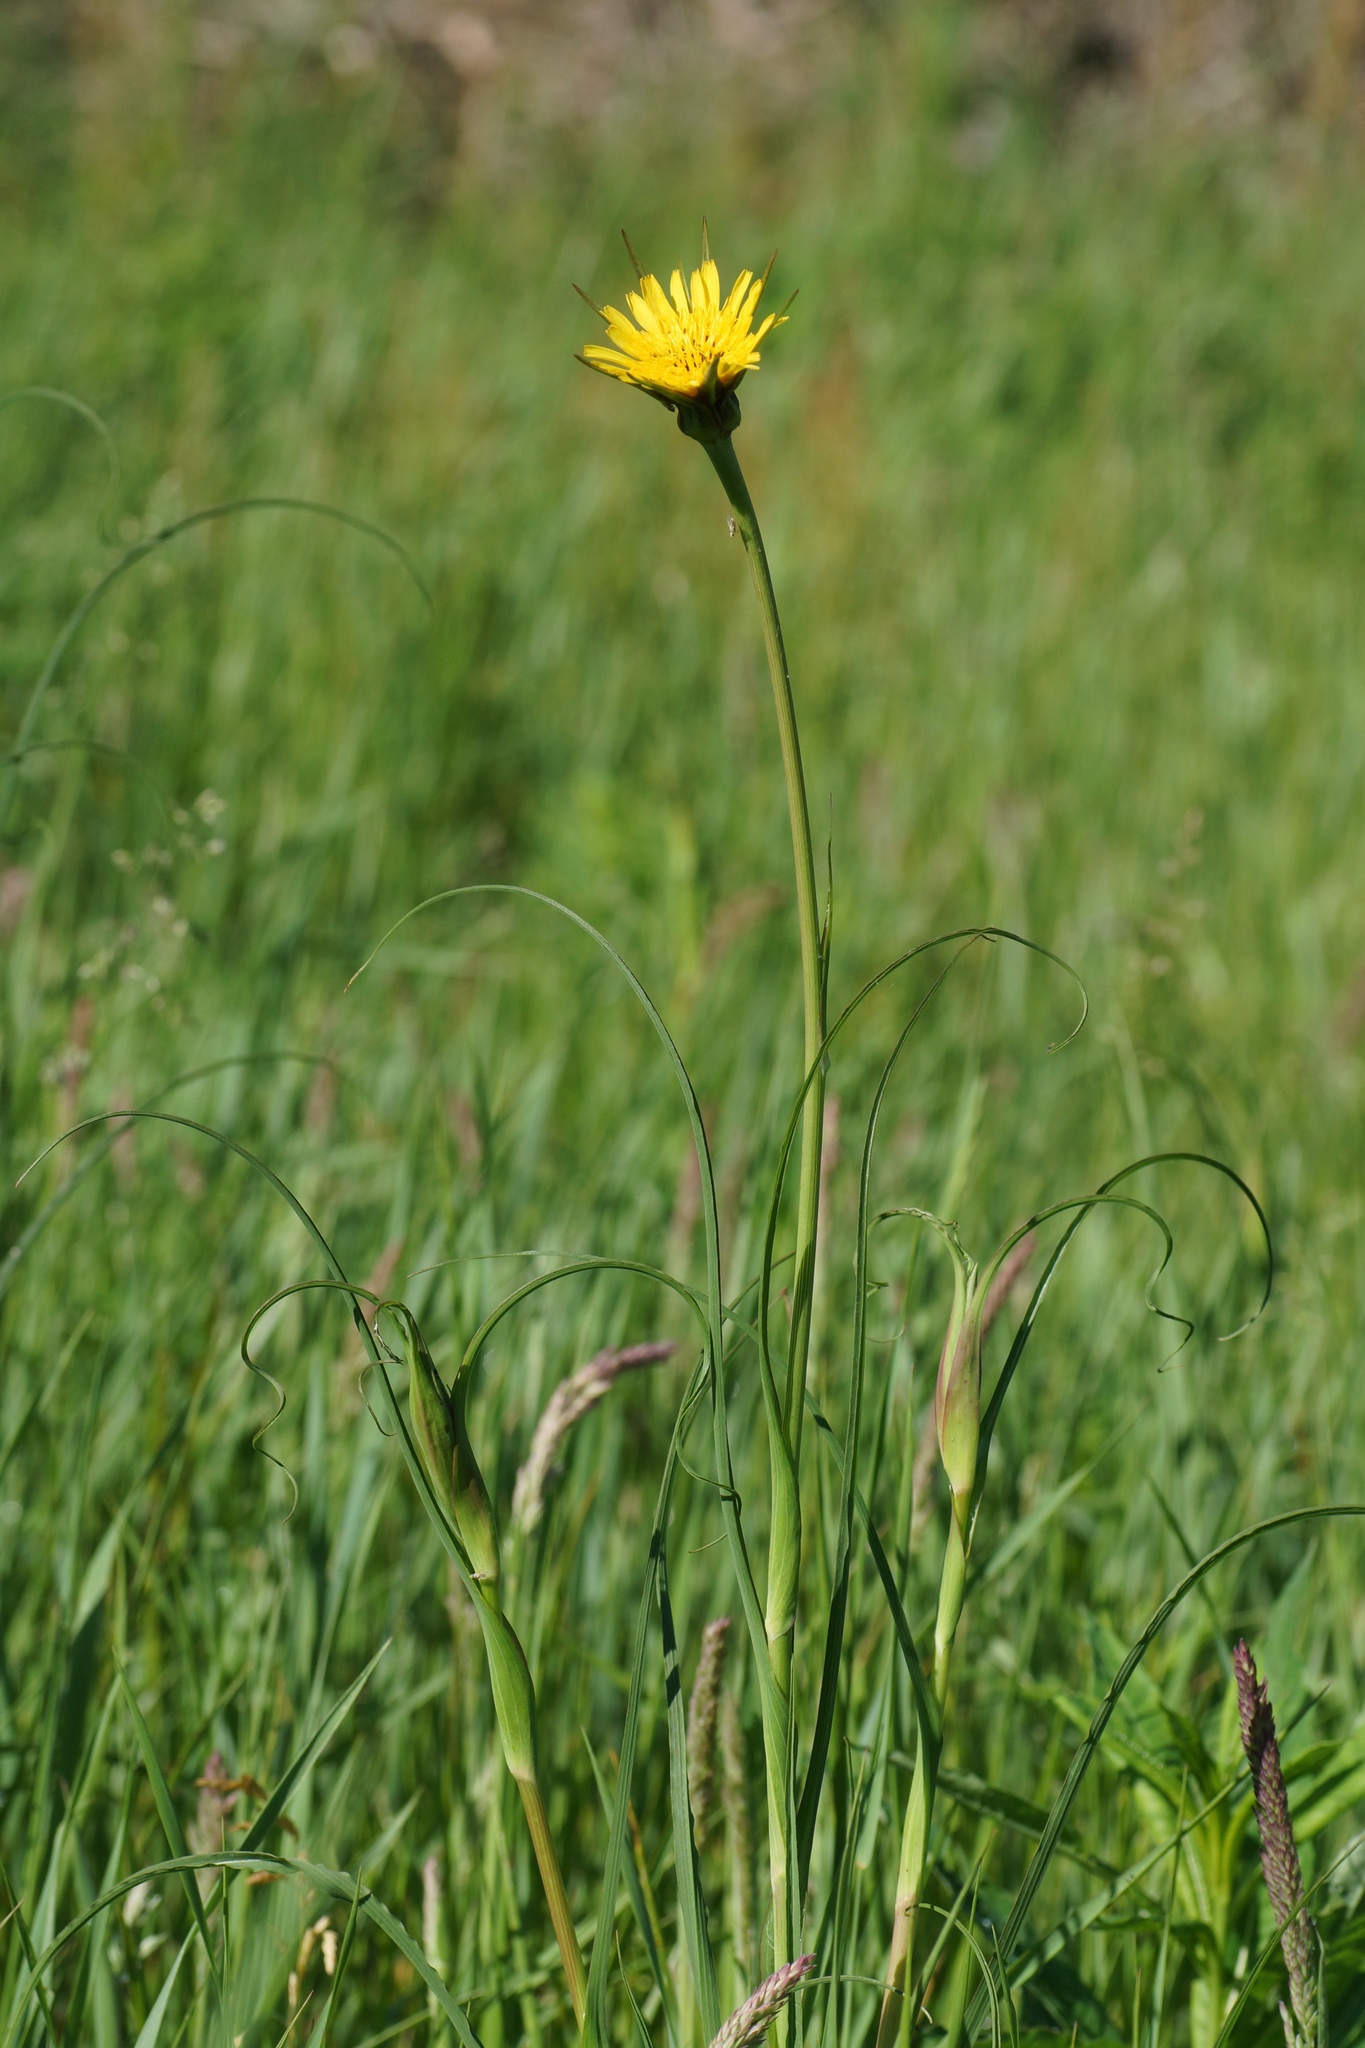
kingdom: Plantae
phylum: Tracheophyta
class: Magnoliopsida
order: Asterales
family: Asteraceae
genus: Tragopogon
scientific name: Tragopogon pratensis
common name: Goat's-beard
